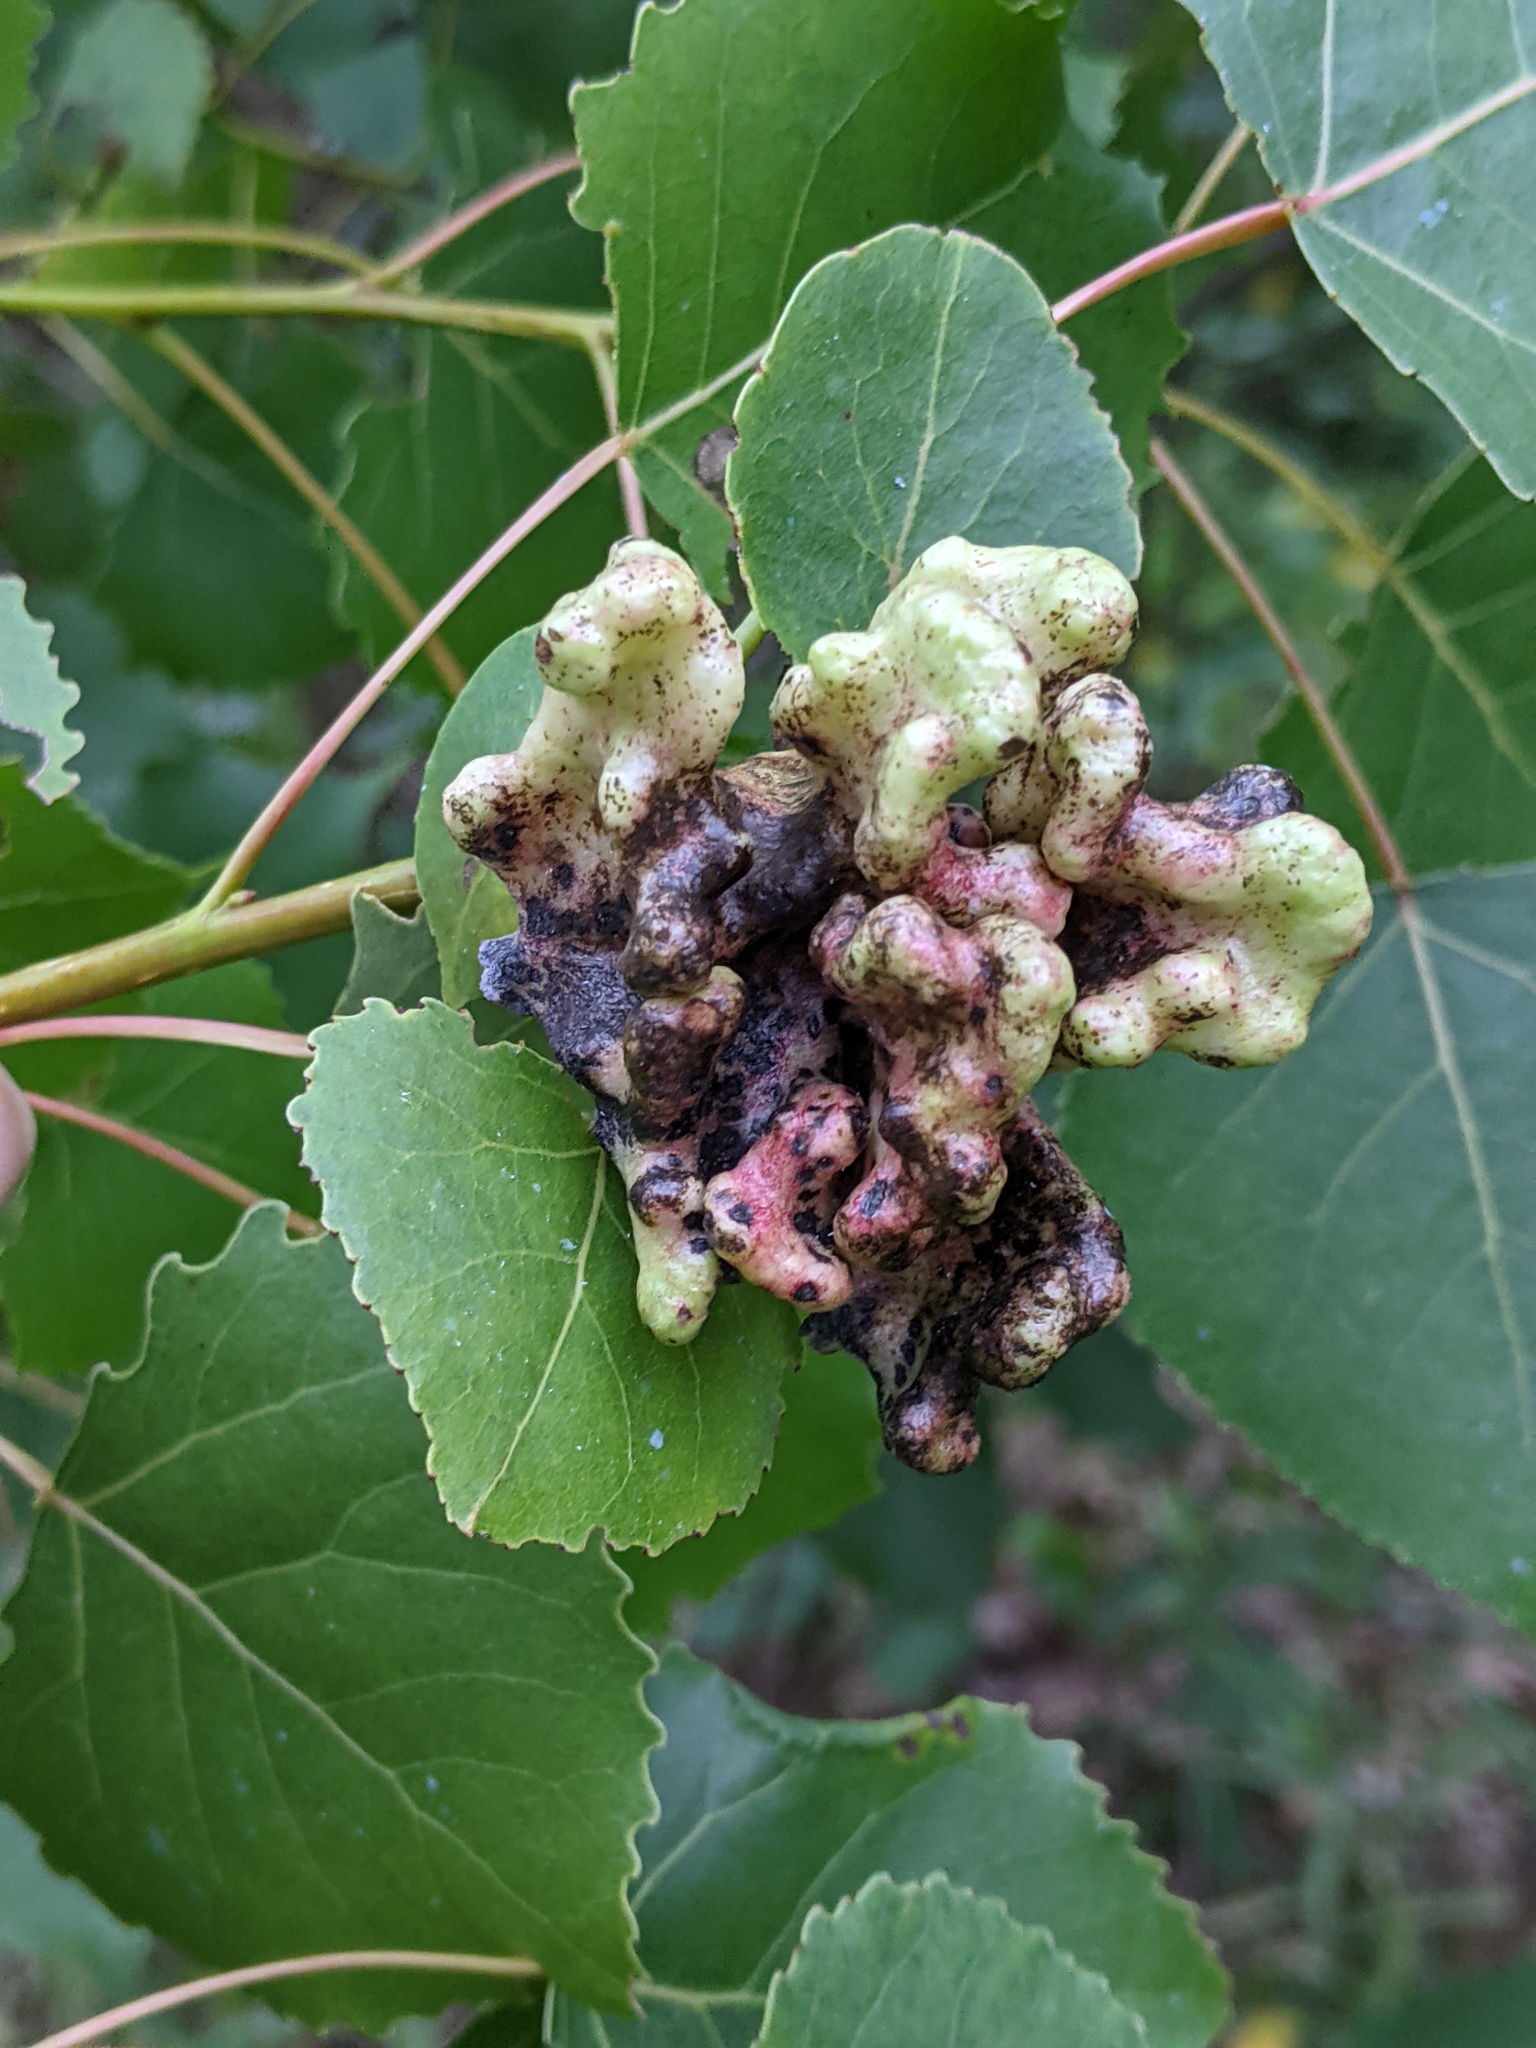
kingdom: Animalia
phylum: Arthropoda
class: Insecta
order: Hemiptera
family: Aphididae
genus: Mordwilkoja
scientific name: Mordwilkoja vagabunda
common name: Poplar vagabond aphid
